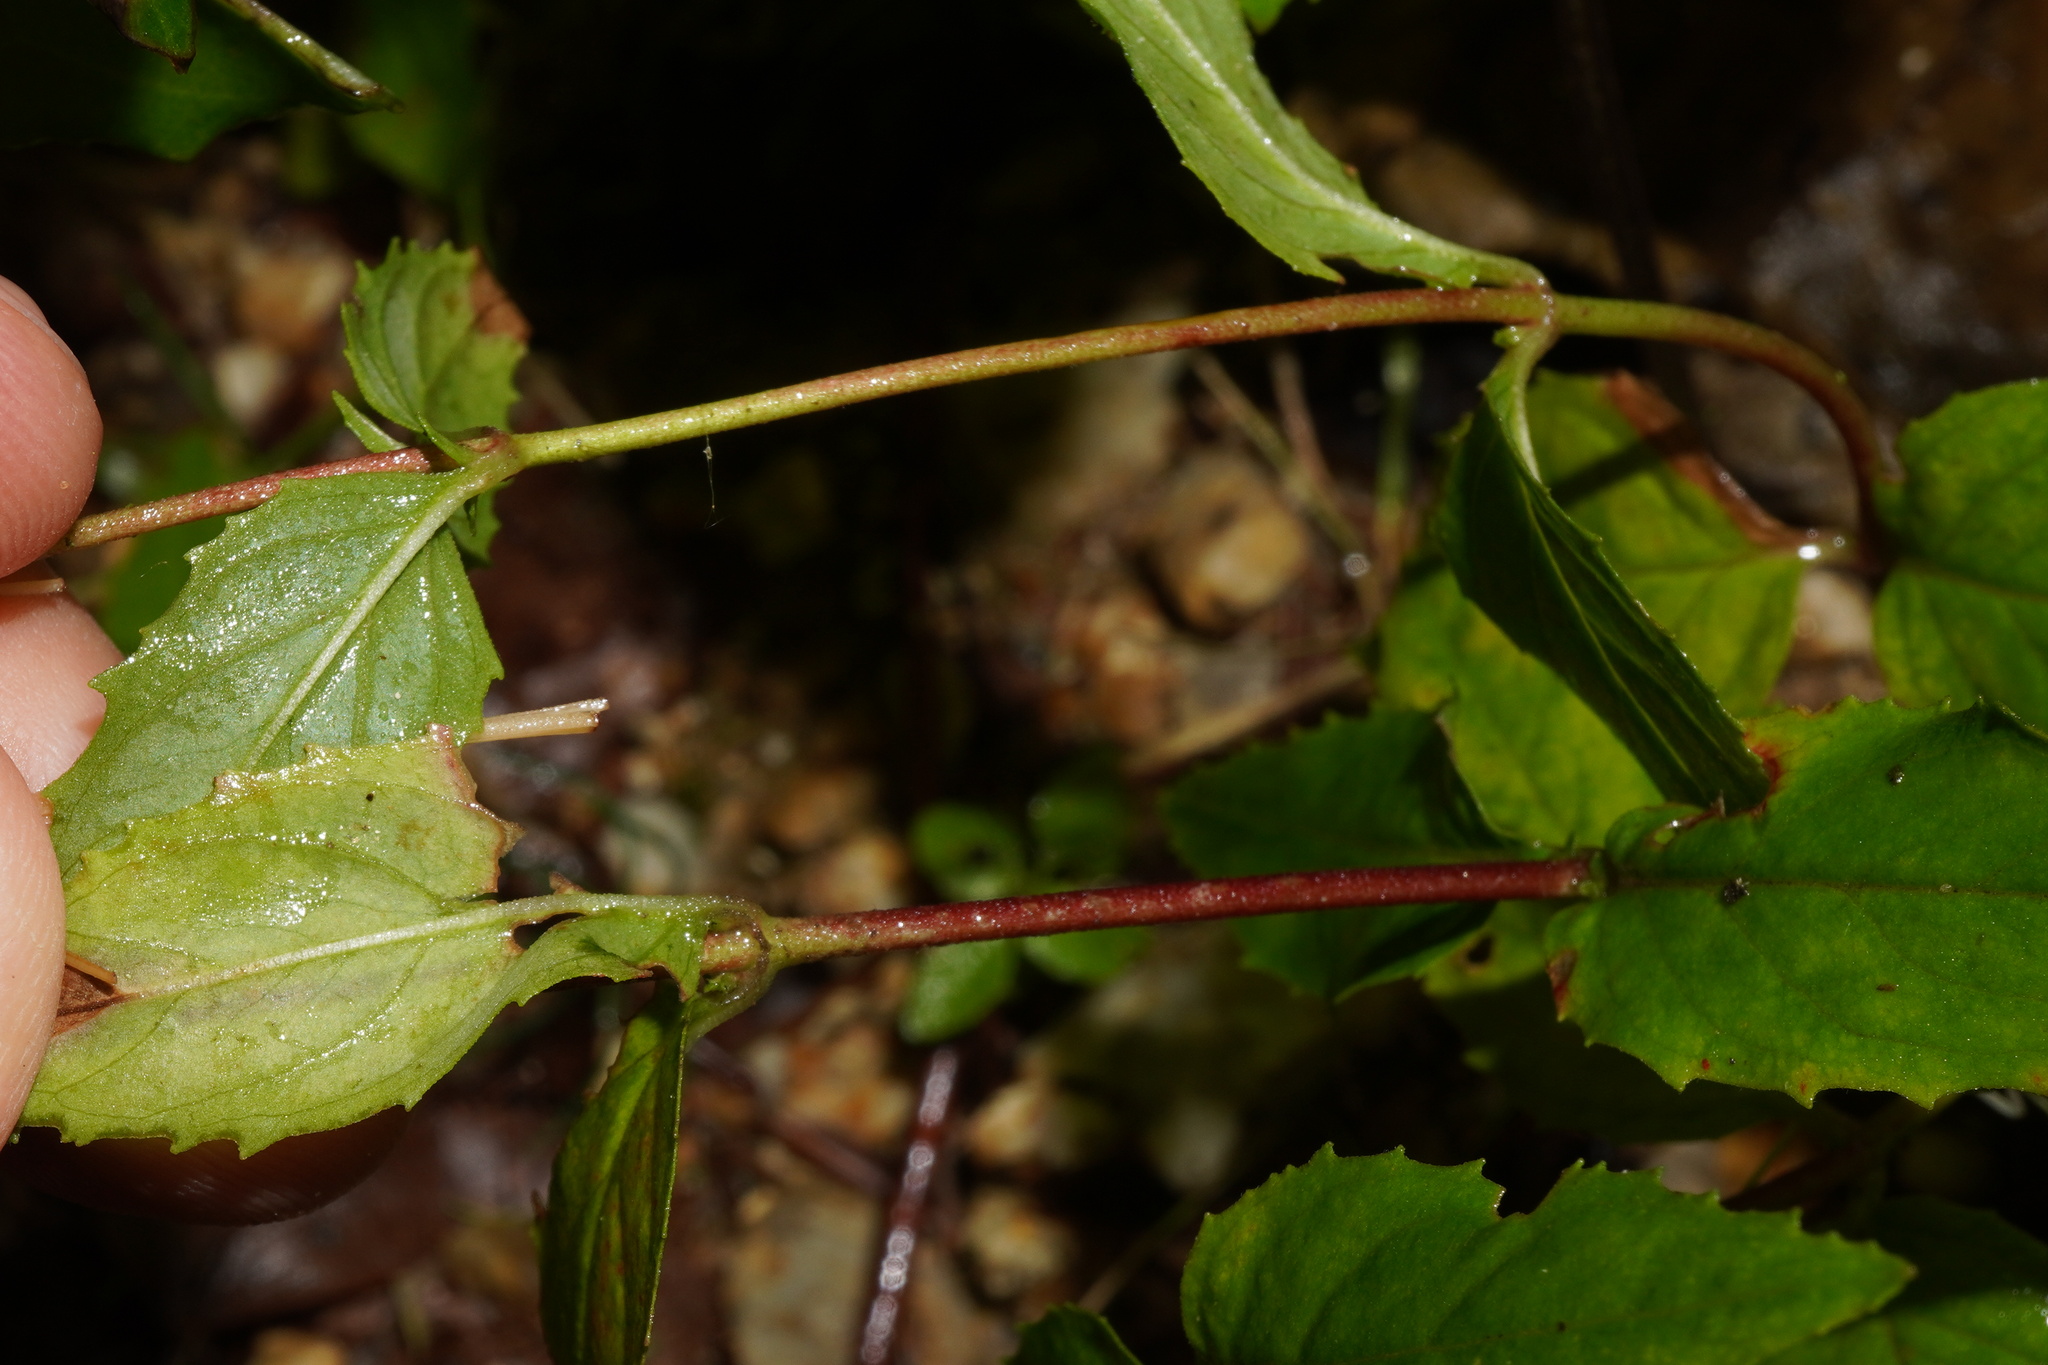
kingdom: Plantae
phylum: Tracheophyta
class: Magnoliopsida
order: Myrtales
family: Onagraceae
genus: Epilobium
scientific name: Epilobium montanum
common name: Broad-leaved willowherb
